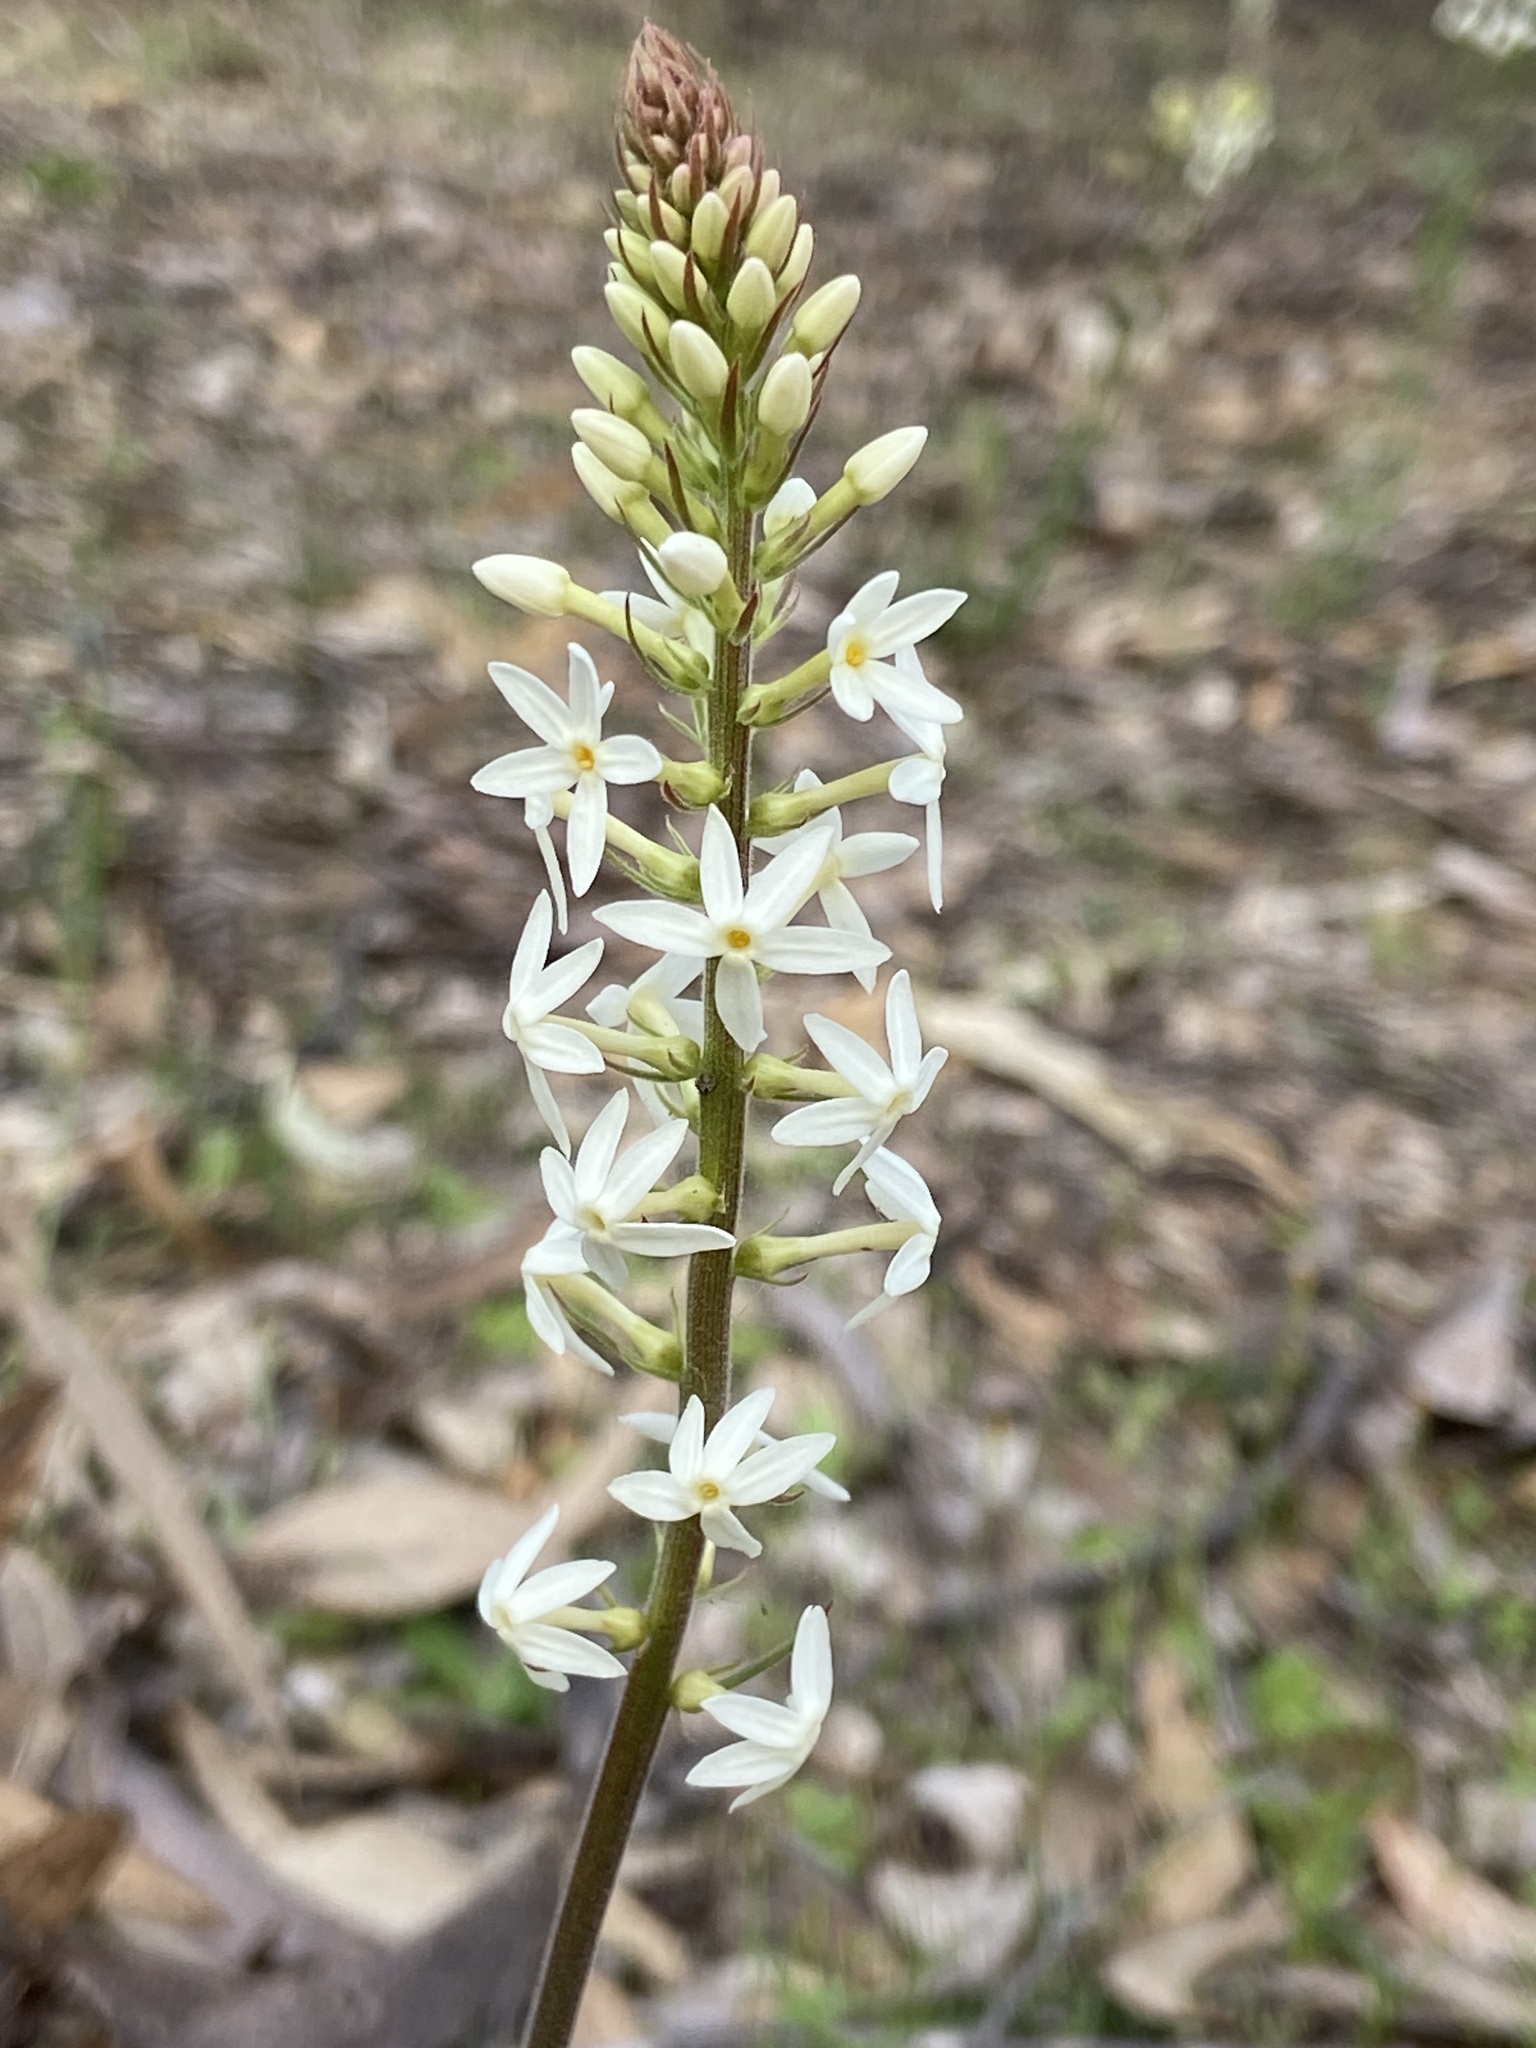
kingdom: Plantae
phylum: Tracheophyta
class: Magnoliopsida
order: Celastrales
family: Celastraceae
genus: Stackhousia
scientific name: Stackhousia monogyna
